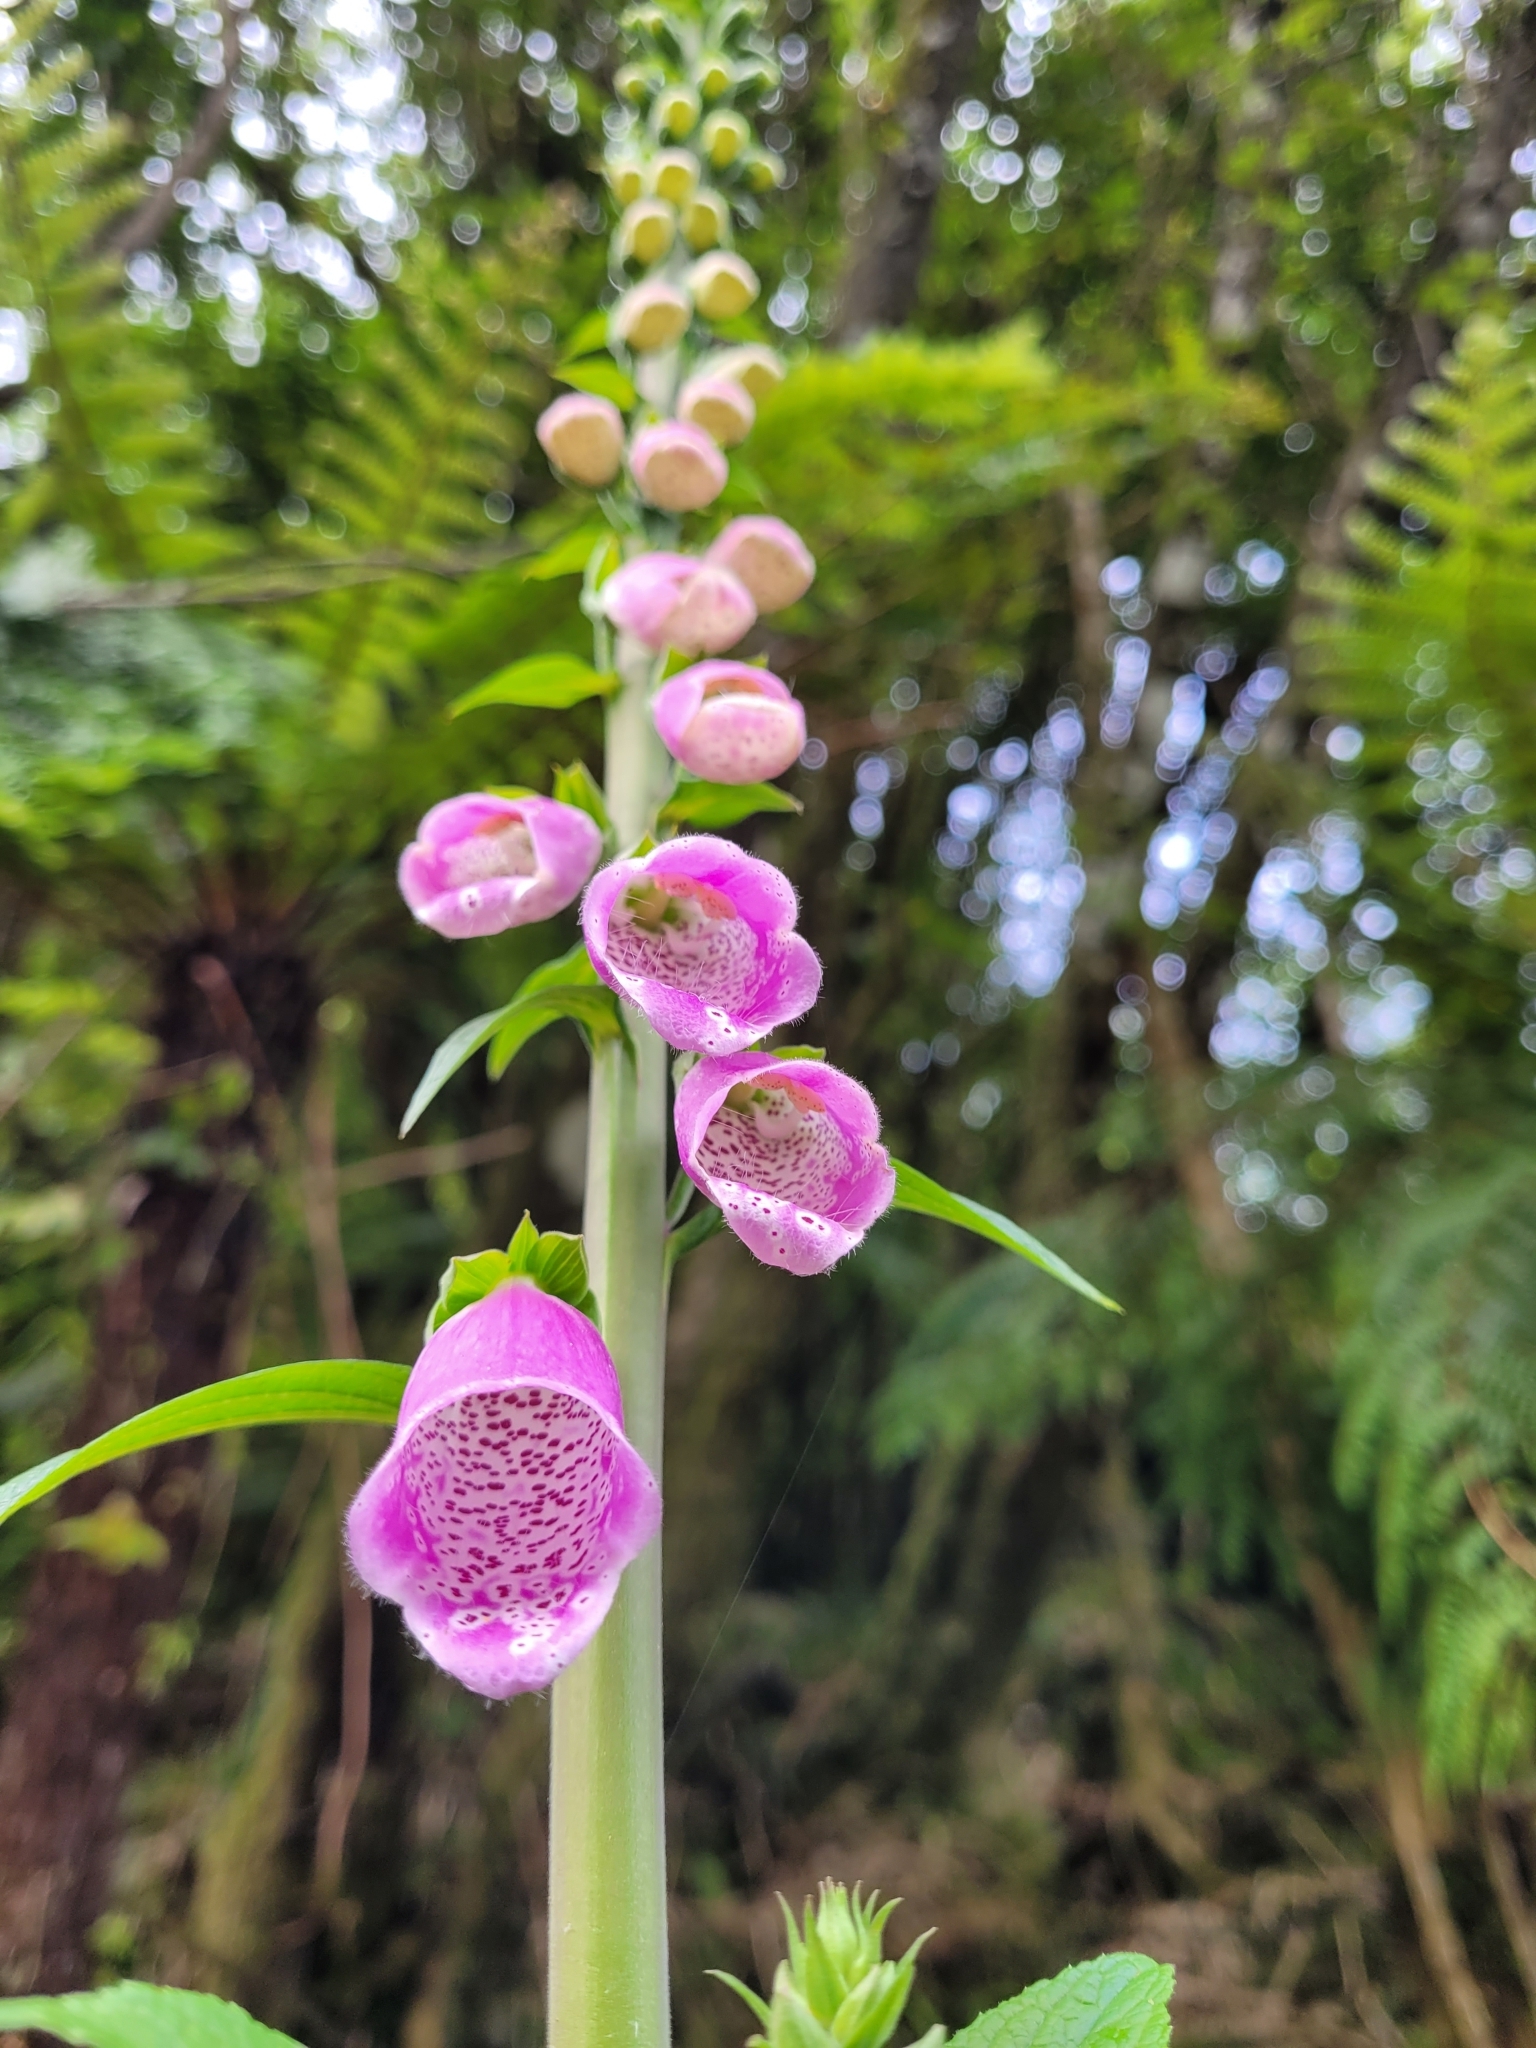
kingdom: Plantae
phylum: Tracheophyta
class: Magnoliopsida
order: Lamiales
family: Plantaginaceae
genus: Digitalis
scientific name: Digitalis purpurea
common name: Foxglove
